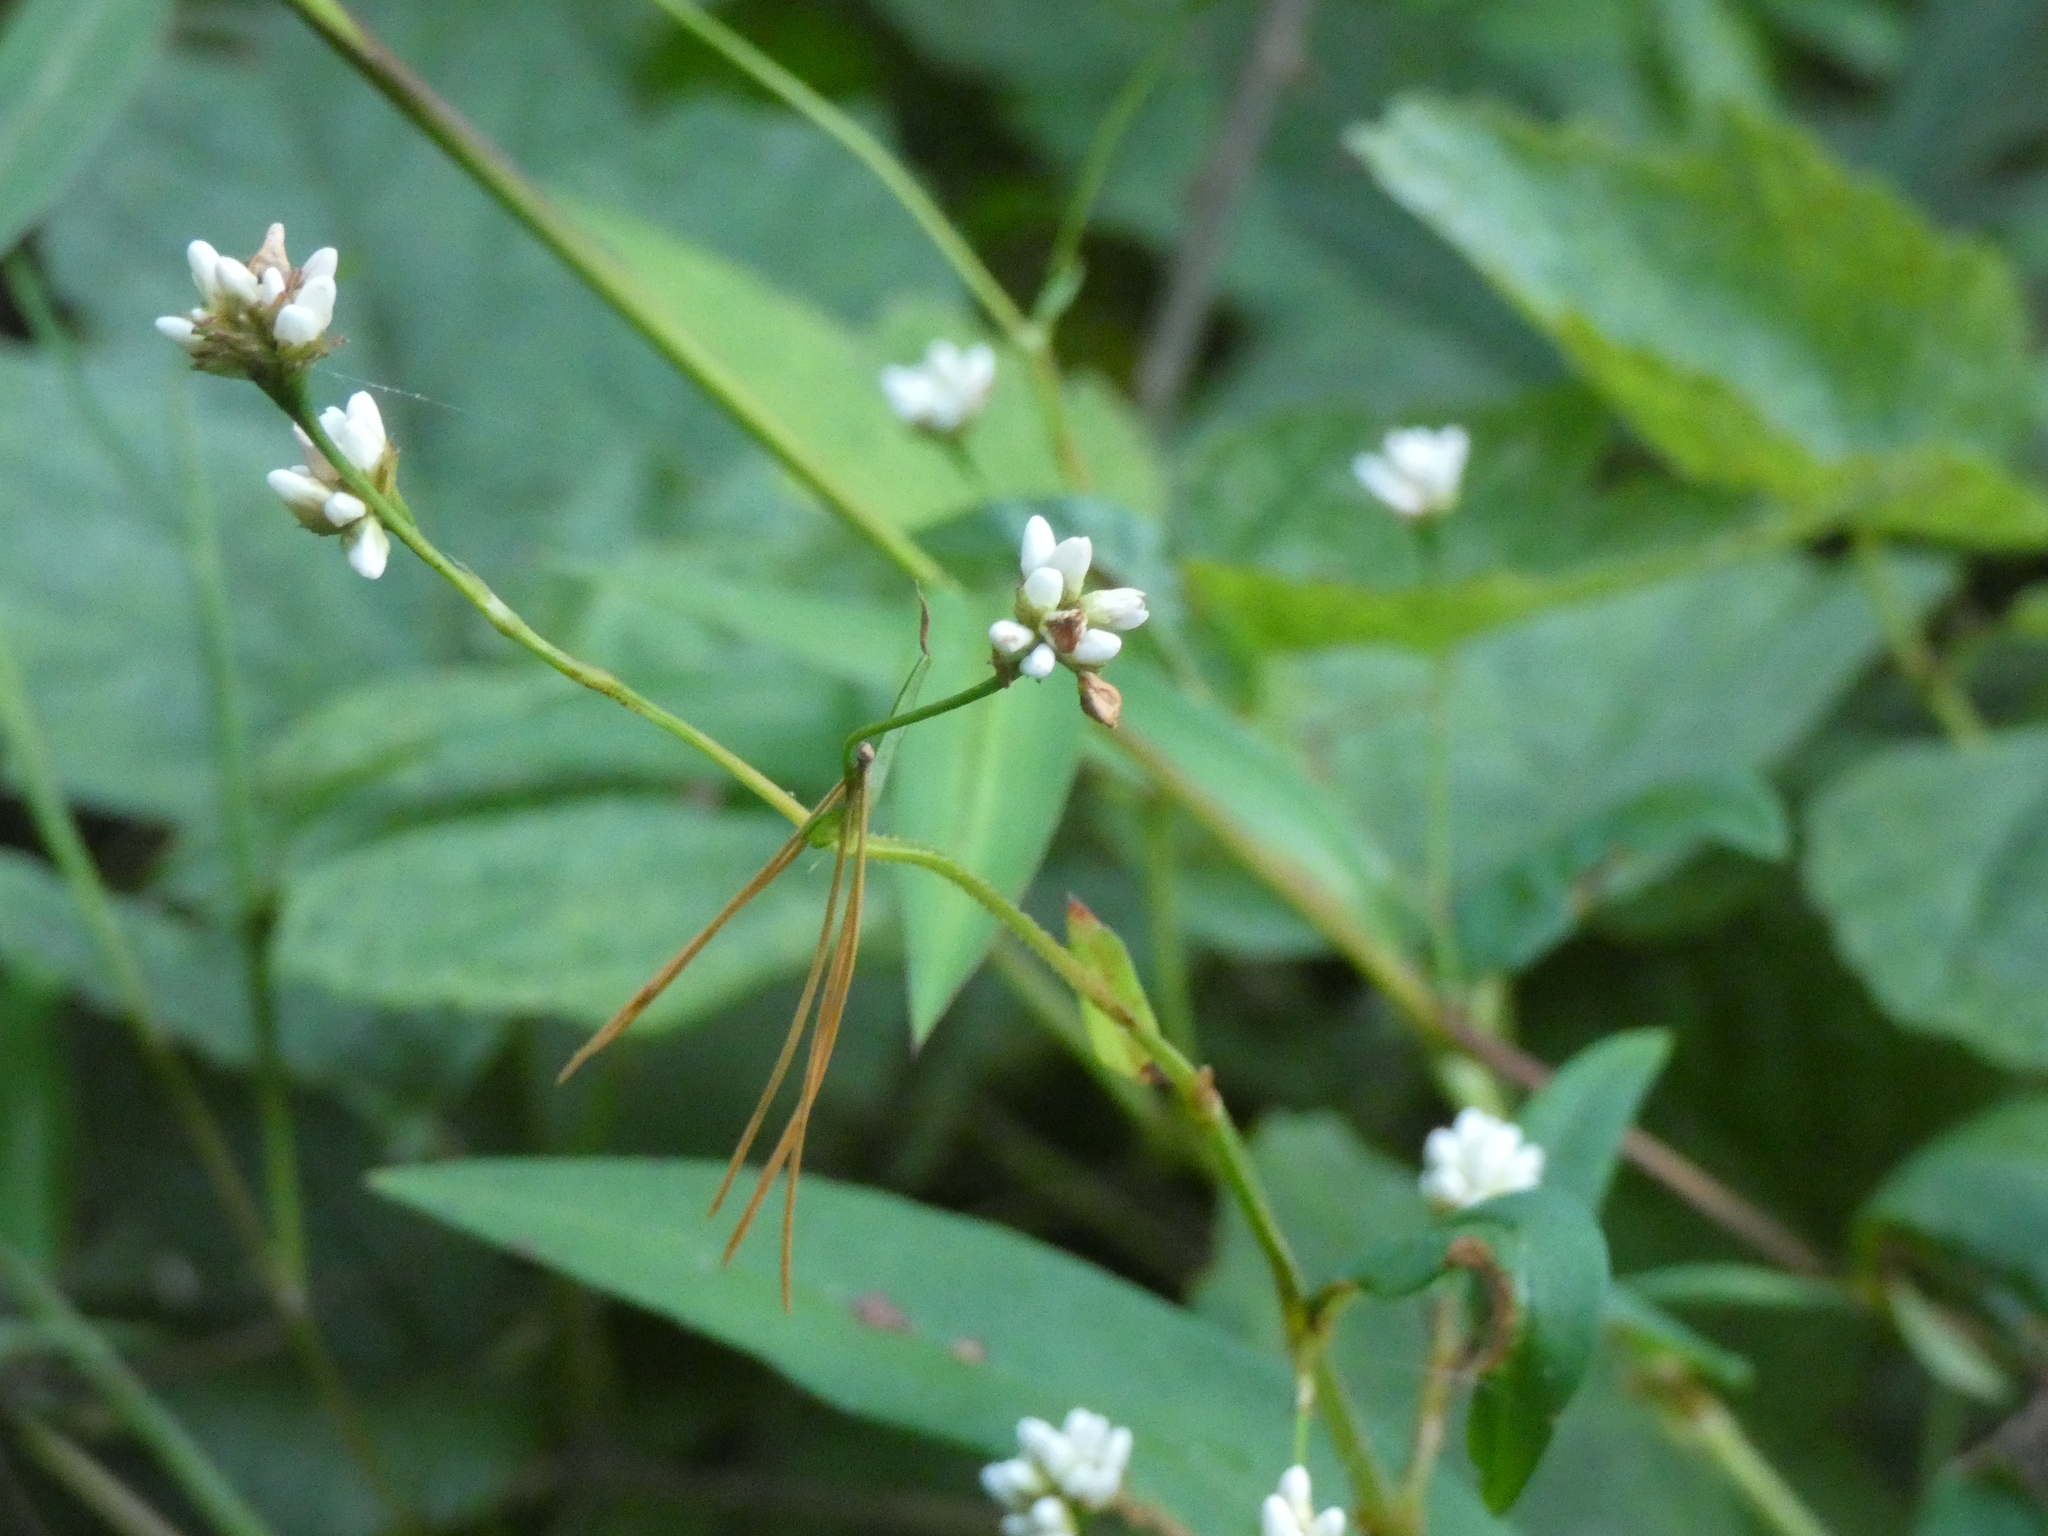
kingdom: Plantae
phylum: Tracheophyta
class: Magnoliopsida
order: Caryophyllales
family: Polygonaceae
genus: Persicaria
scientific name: Persicaria sagittata
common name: American tearthumb
